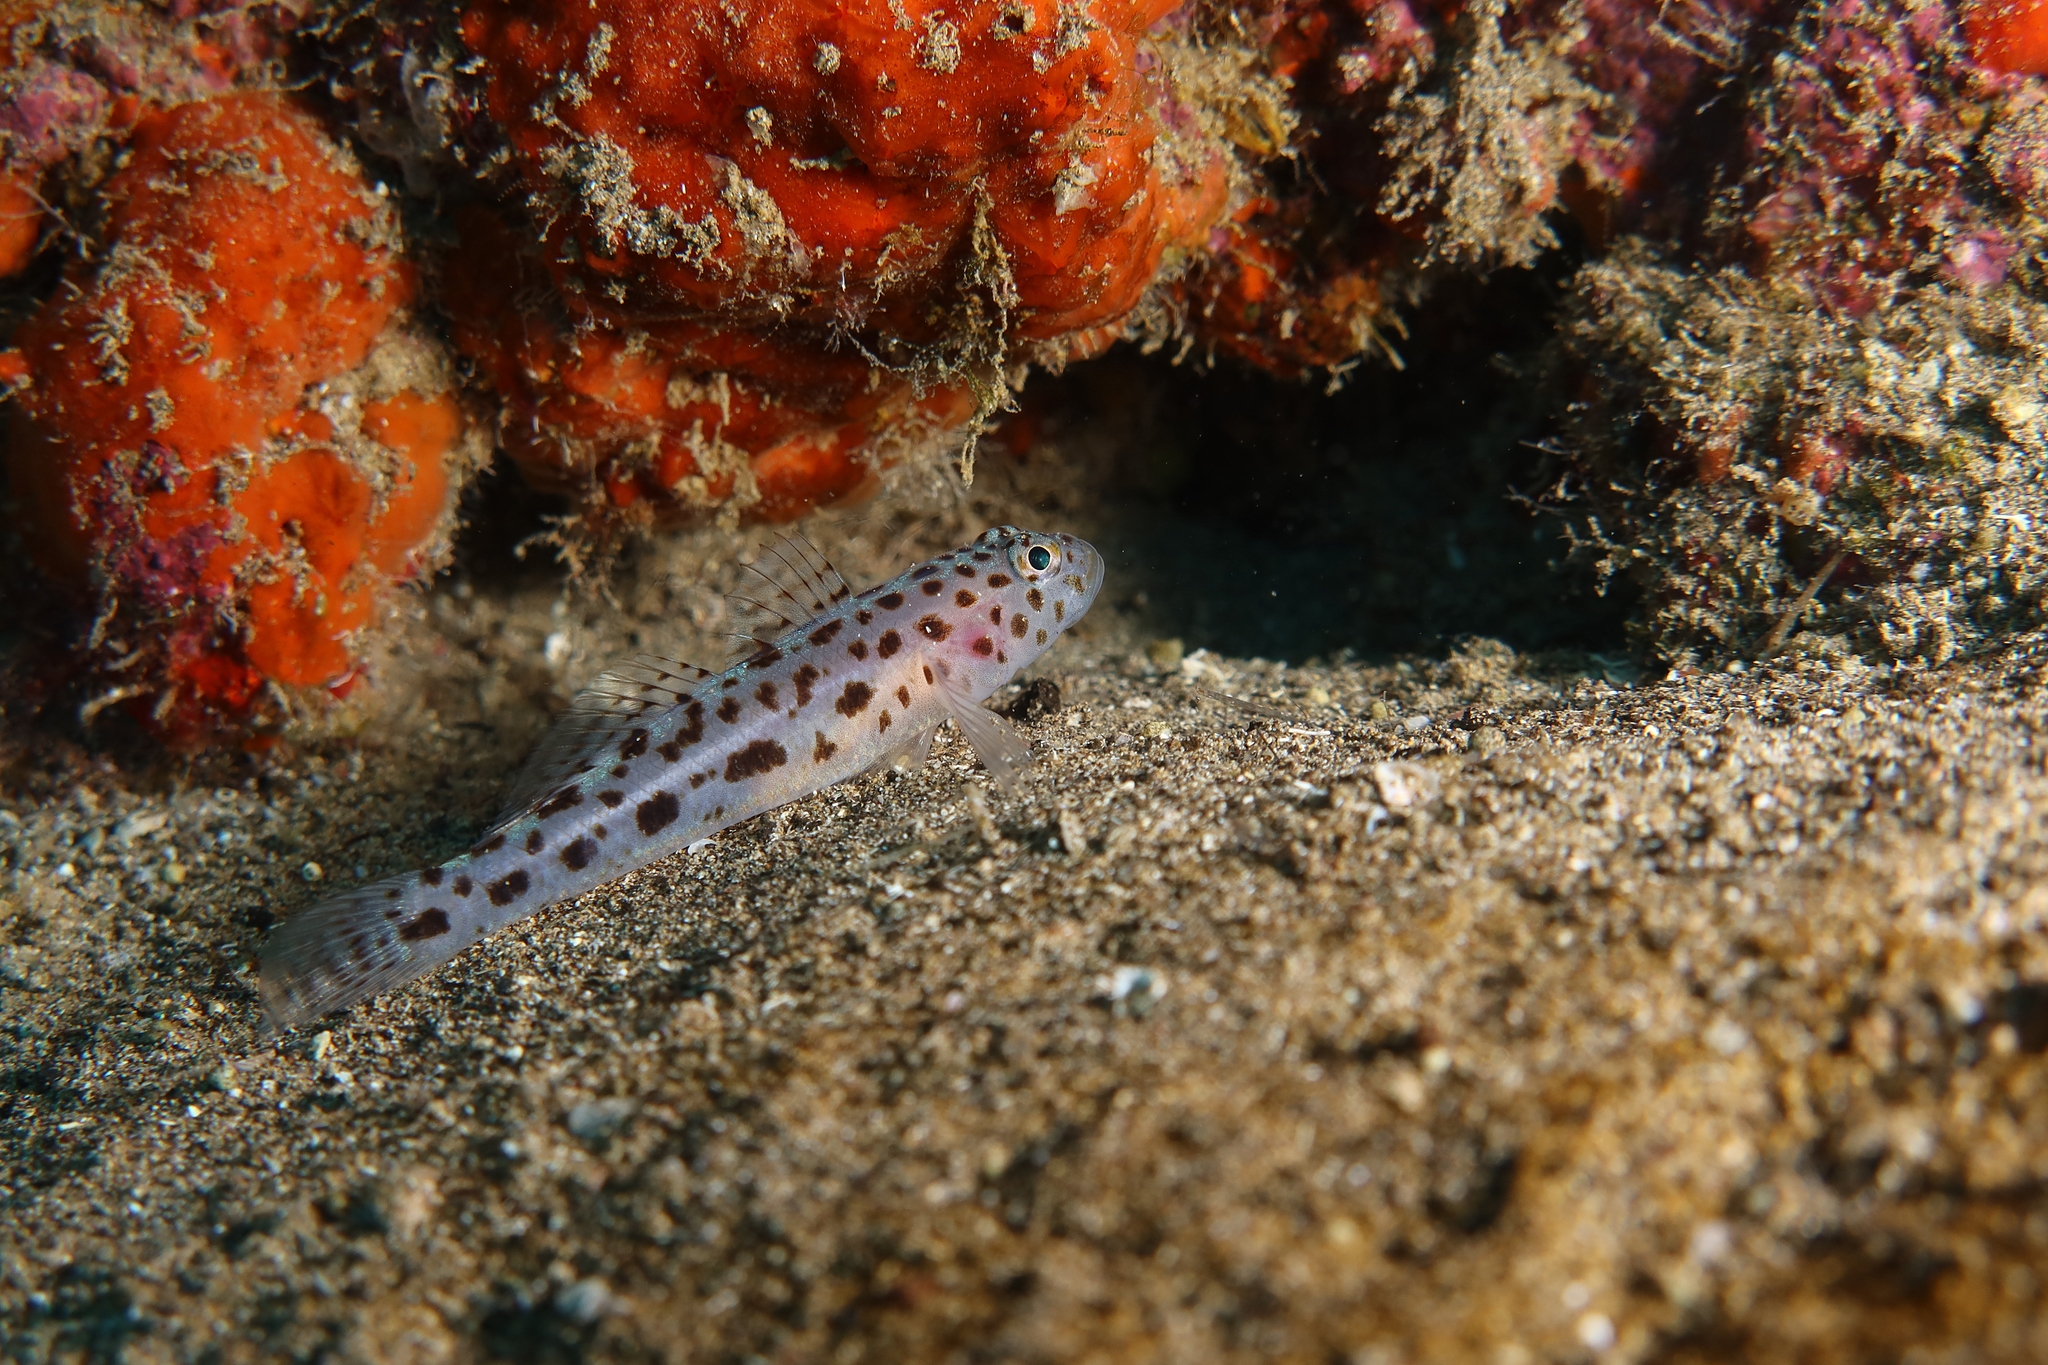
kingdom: Animalia
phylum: Chordata
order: Perciformes
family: Gobiidae
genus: Thorogobius
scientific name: Thorogobius ephippiatus
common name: Leopard-spotted goby
